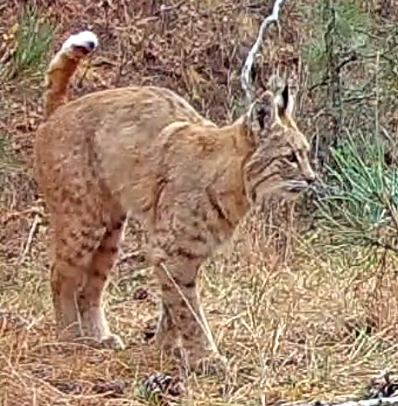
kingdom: Animalia
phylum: Chordata
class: Mammalia
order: Carnivora
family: Felidae
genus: Lynx
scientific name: Lynx rufus
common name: Bobcat
